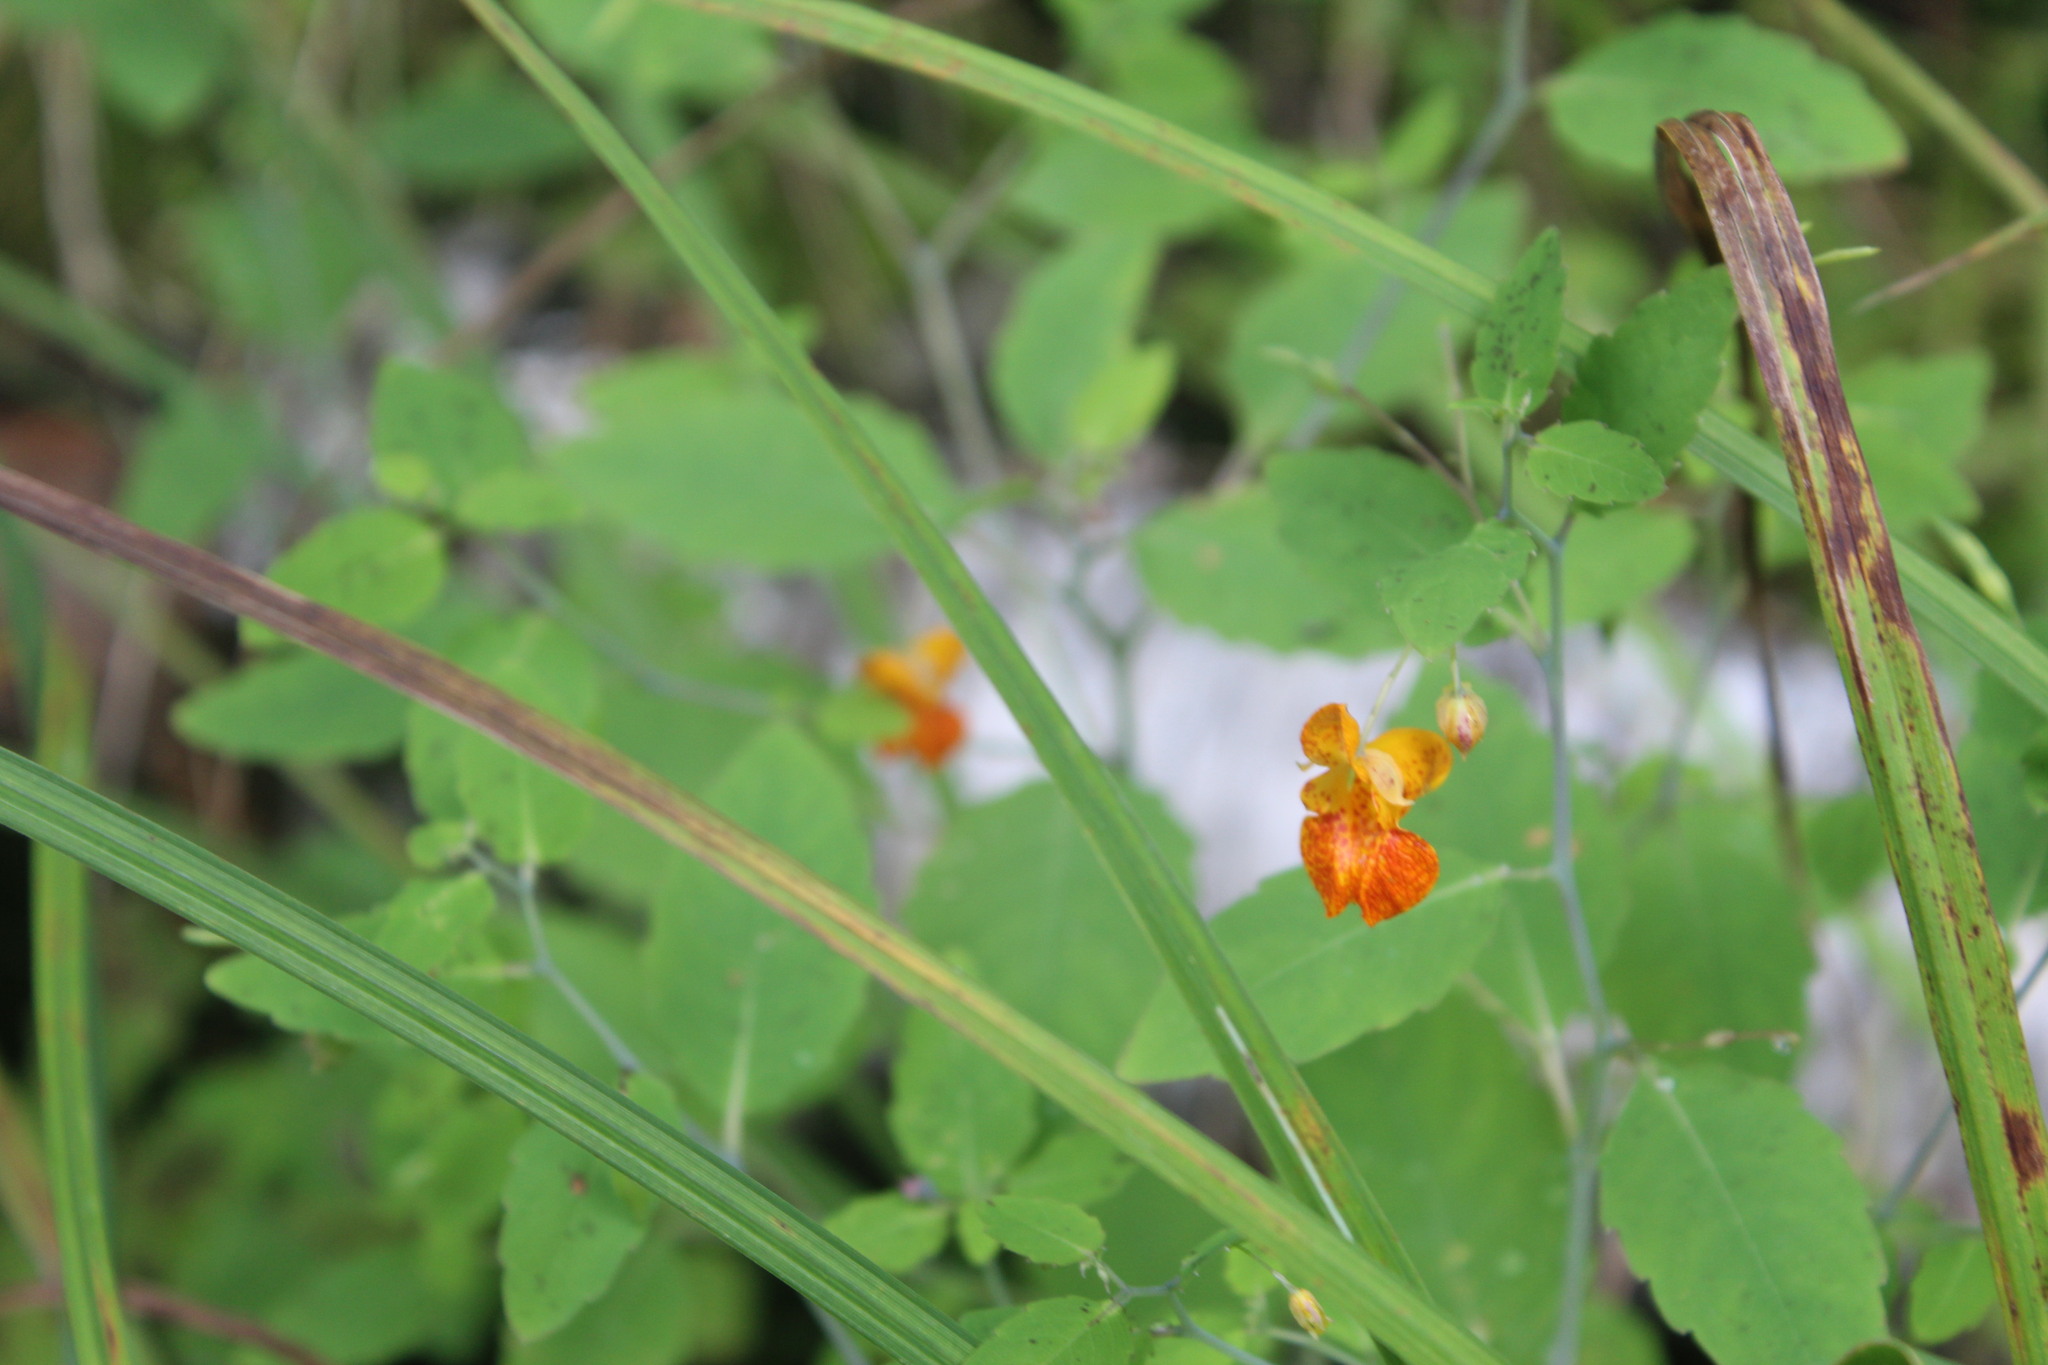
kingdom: Plantae
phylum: Tracheophyta
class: Magnoliopsida
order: Ericales
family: Balsaminaceae
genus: Impatiens
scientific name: Impatiens capensis
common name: Orange balsam
